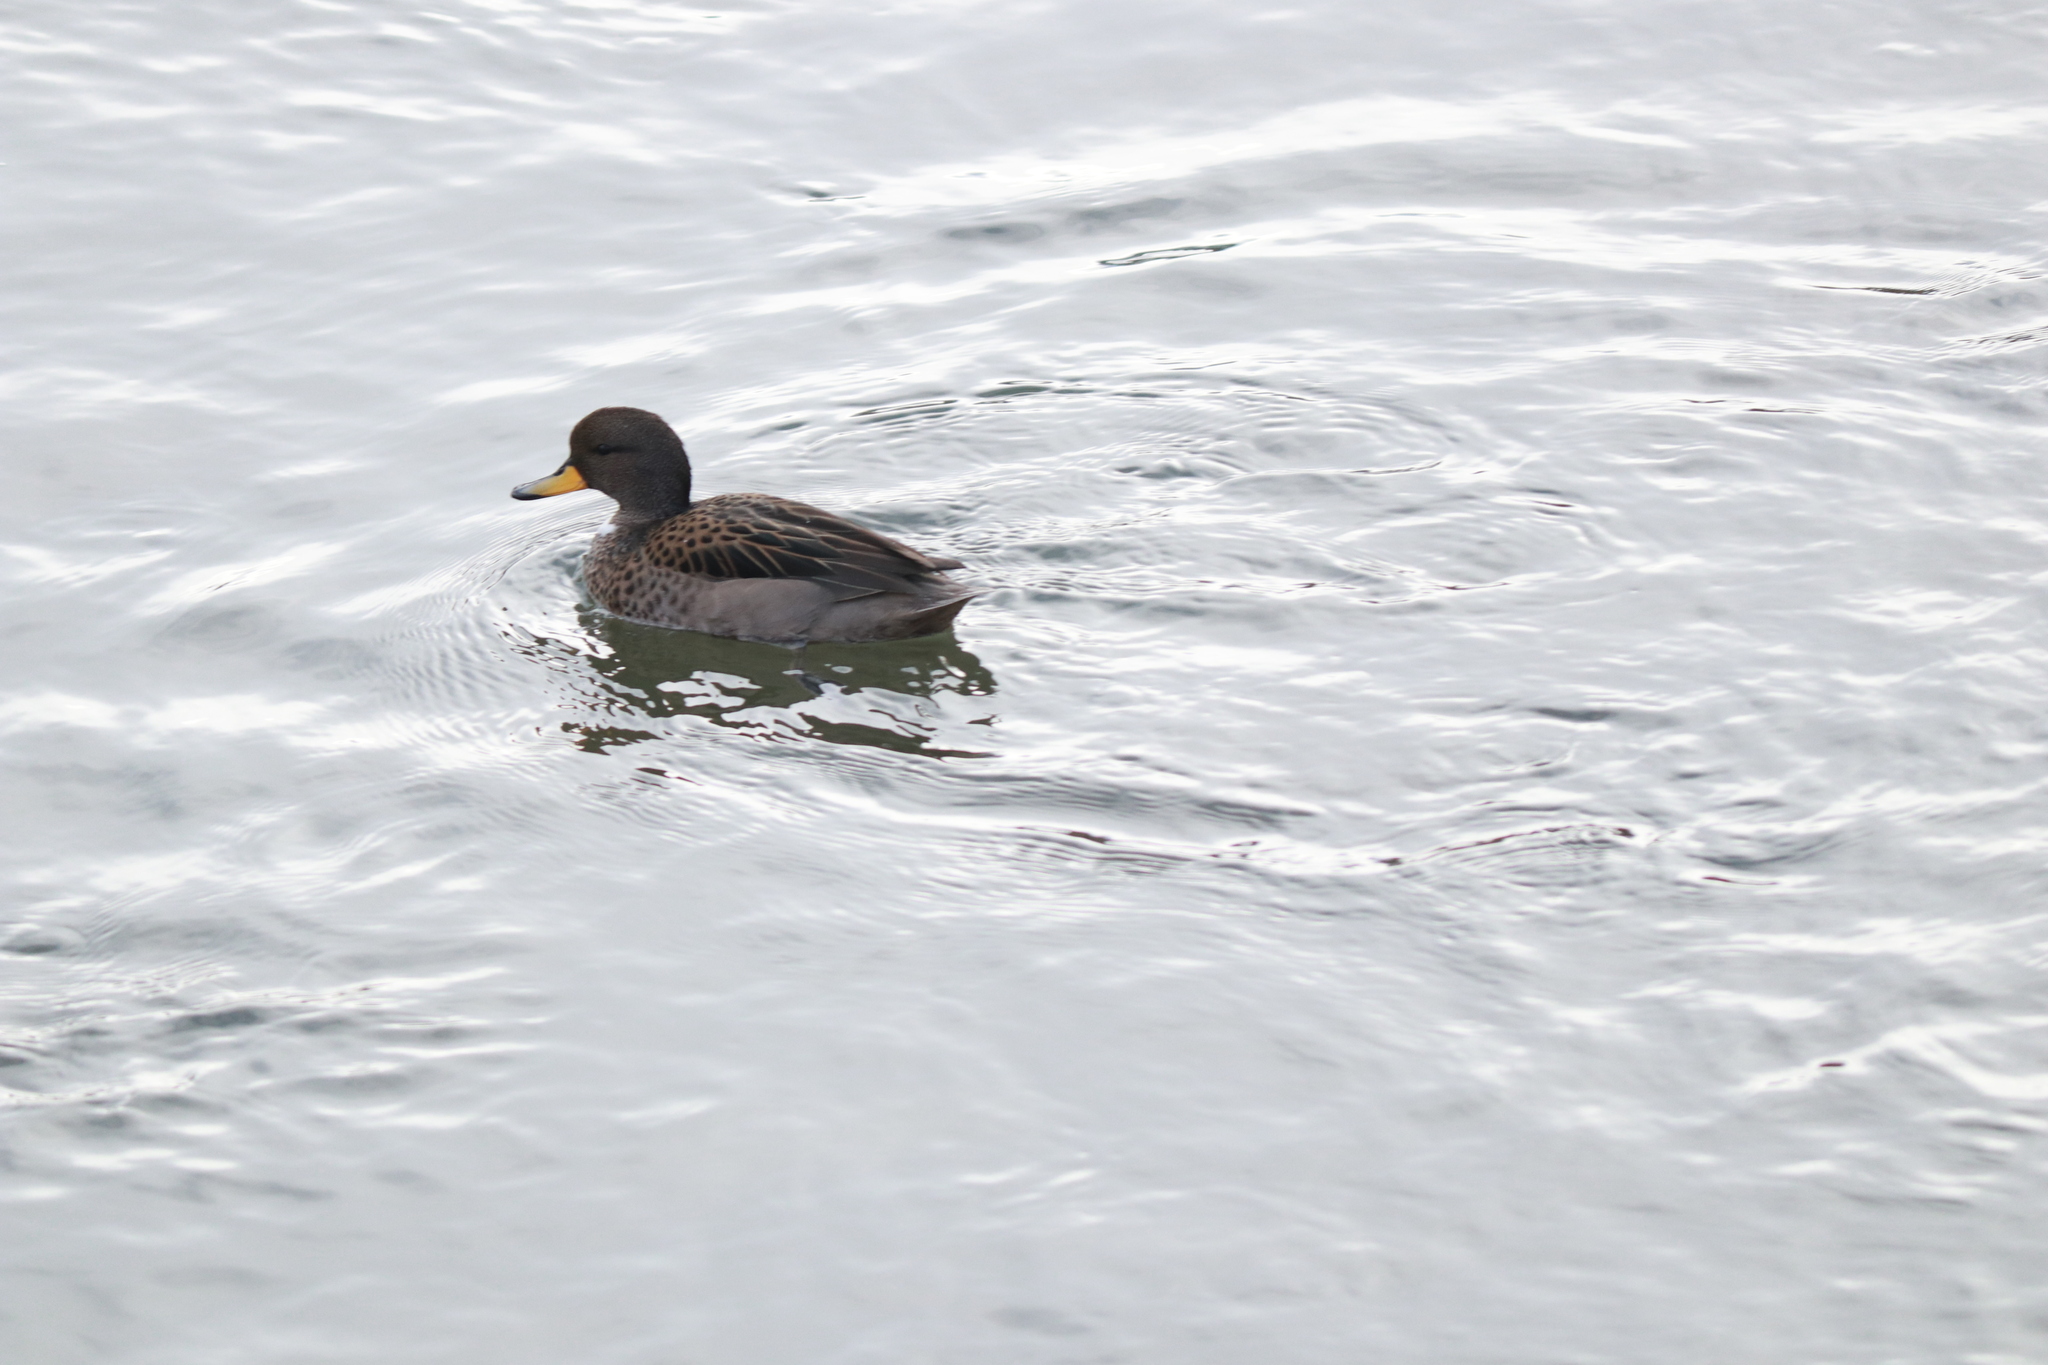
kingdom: Animalia
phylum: Chordata
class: Aves
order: Anseriformes
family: Anatidae
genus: Anas
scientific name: Anas flavirostris
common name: Yellow-billed teal
